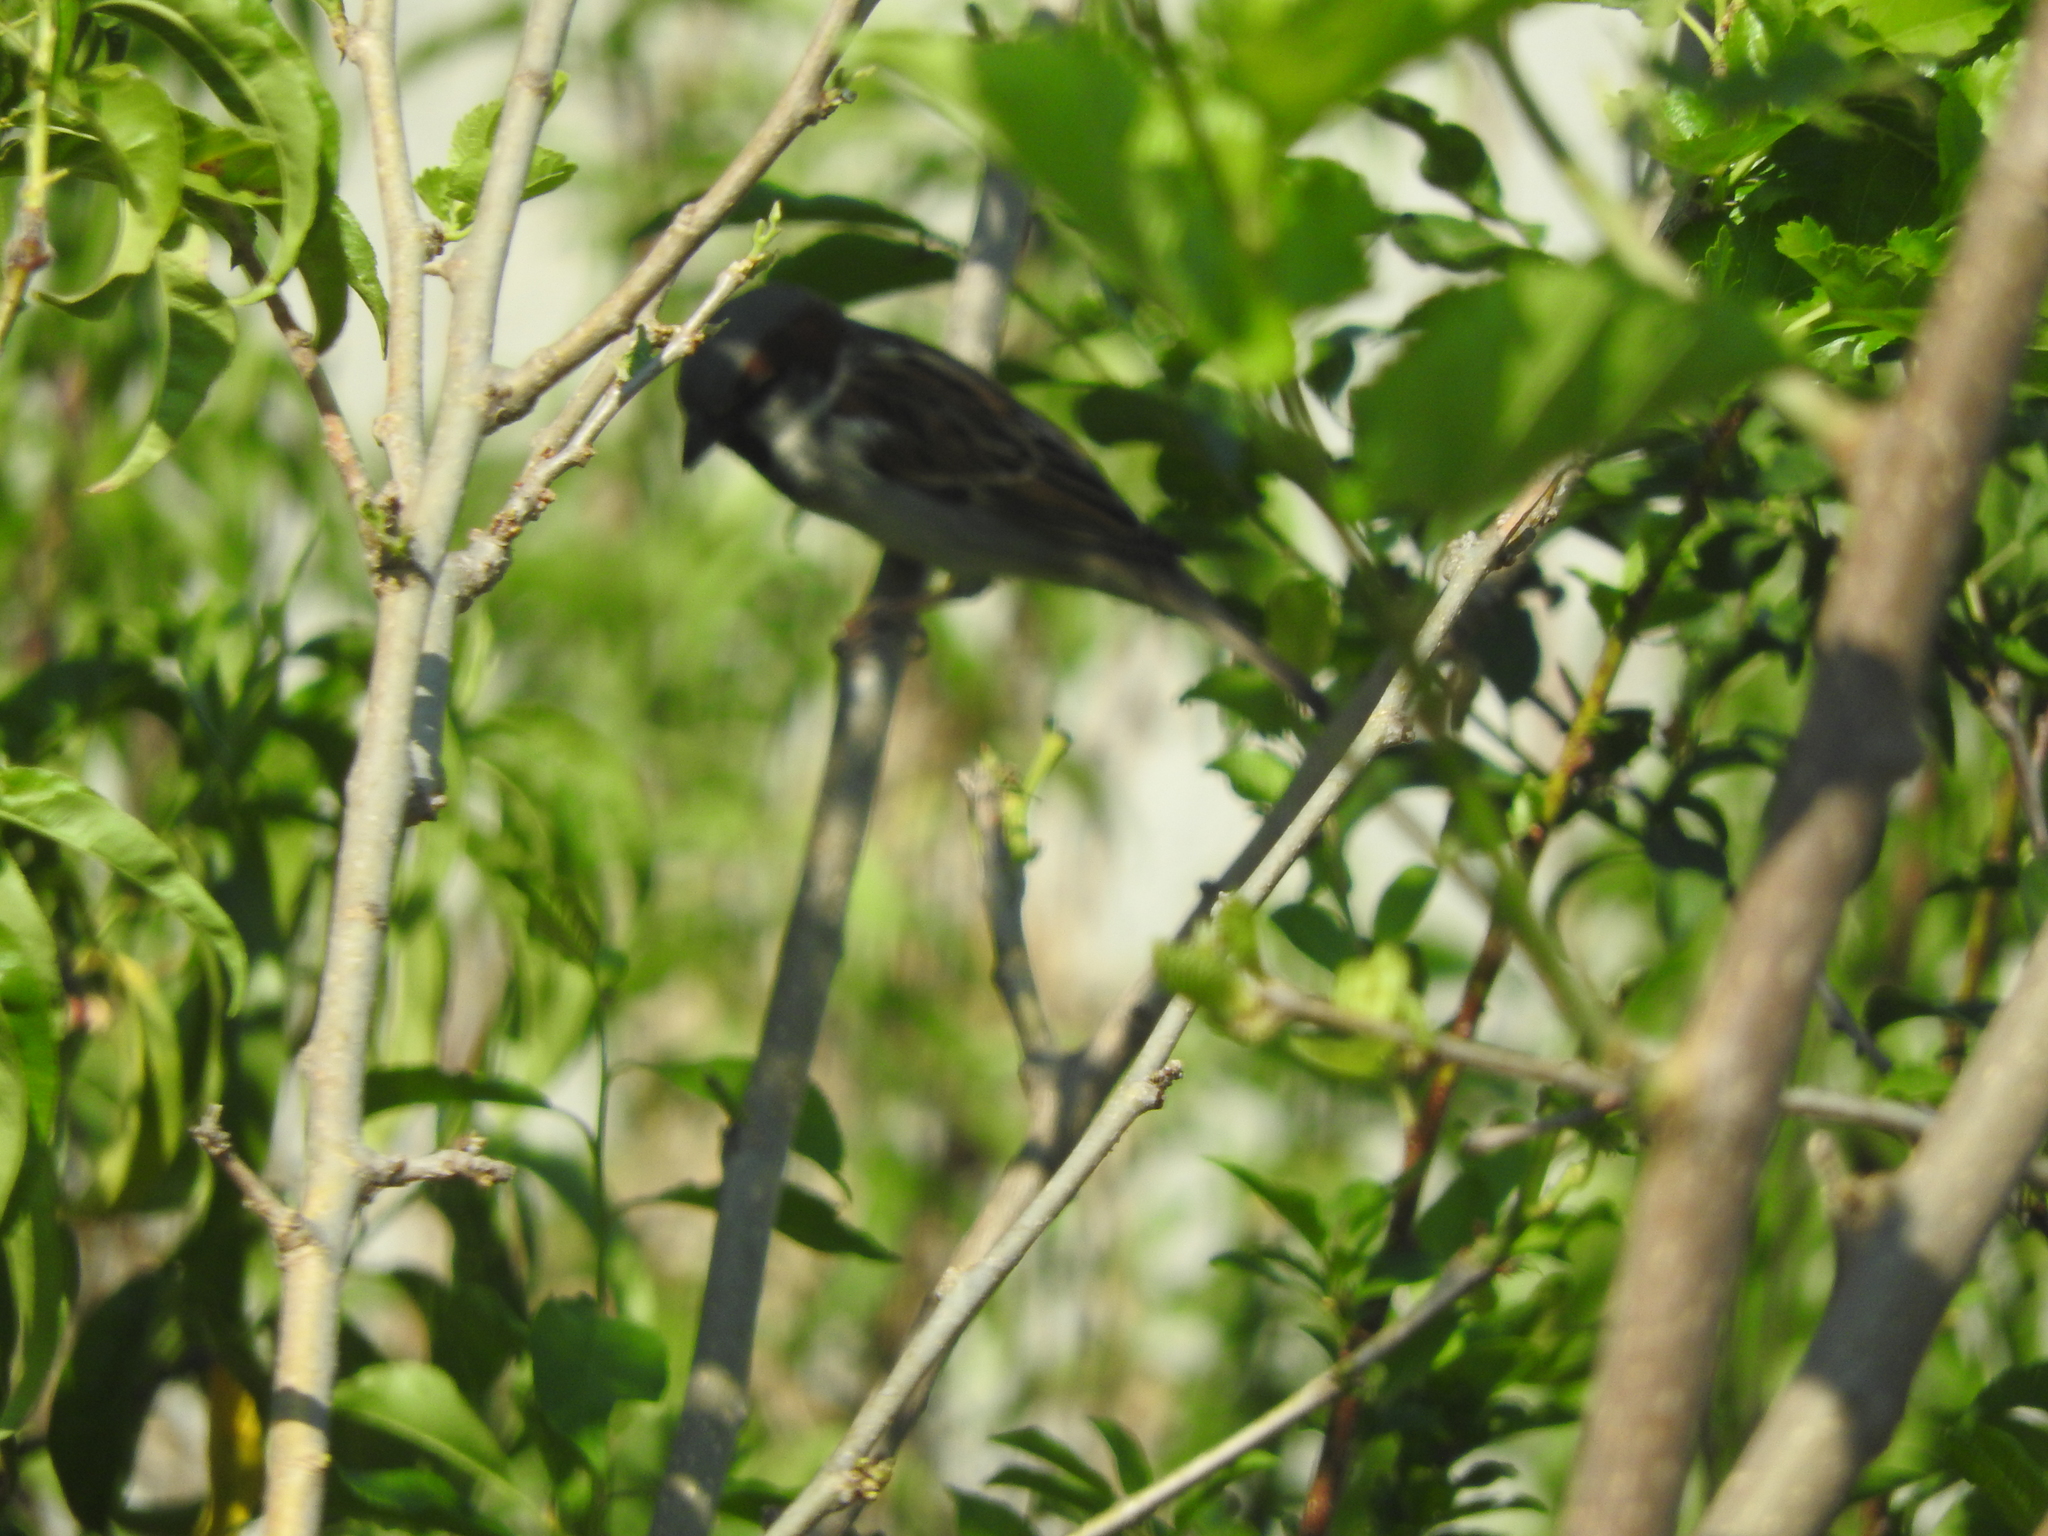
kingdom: Animalia
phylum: Chordata
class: Aves
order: Passeriformes
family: Passeridae
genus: Passer
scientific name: Passer domesticus
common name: House sparrow
